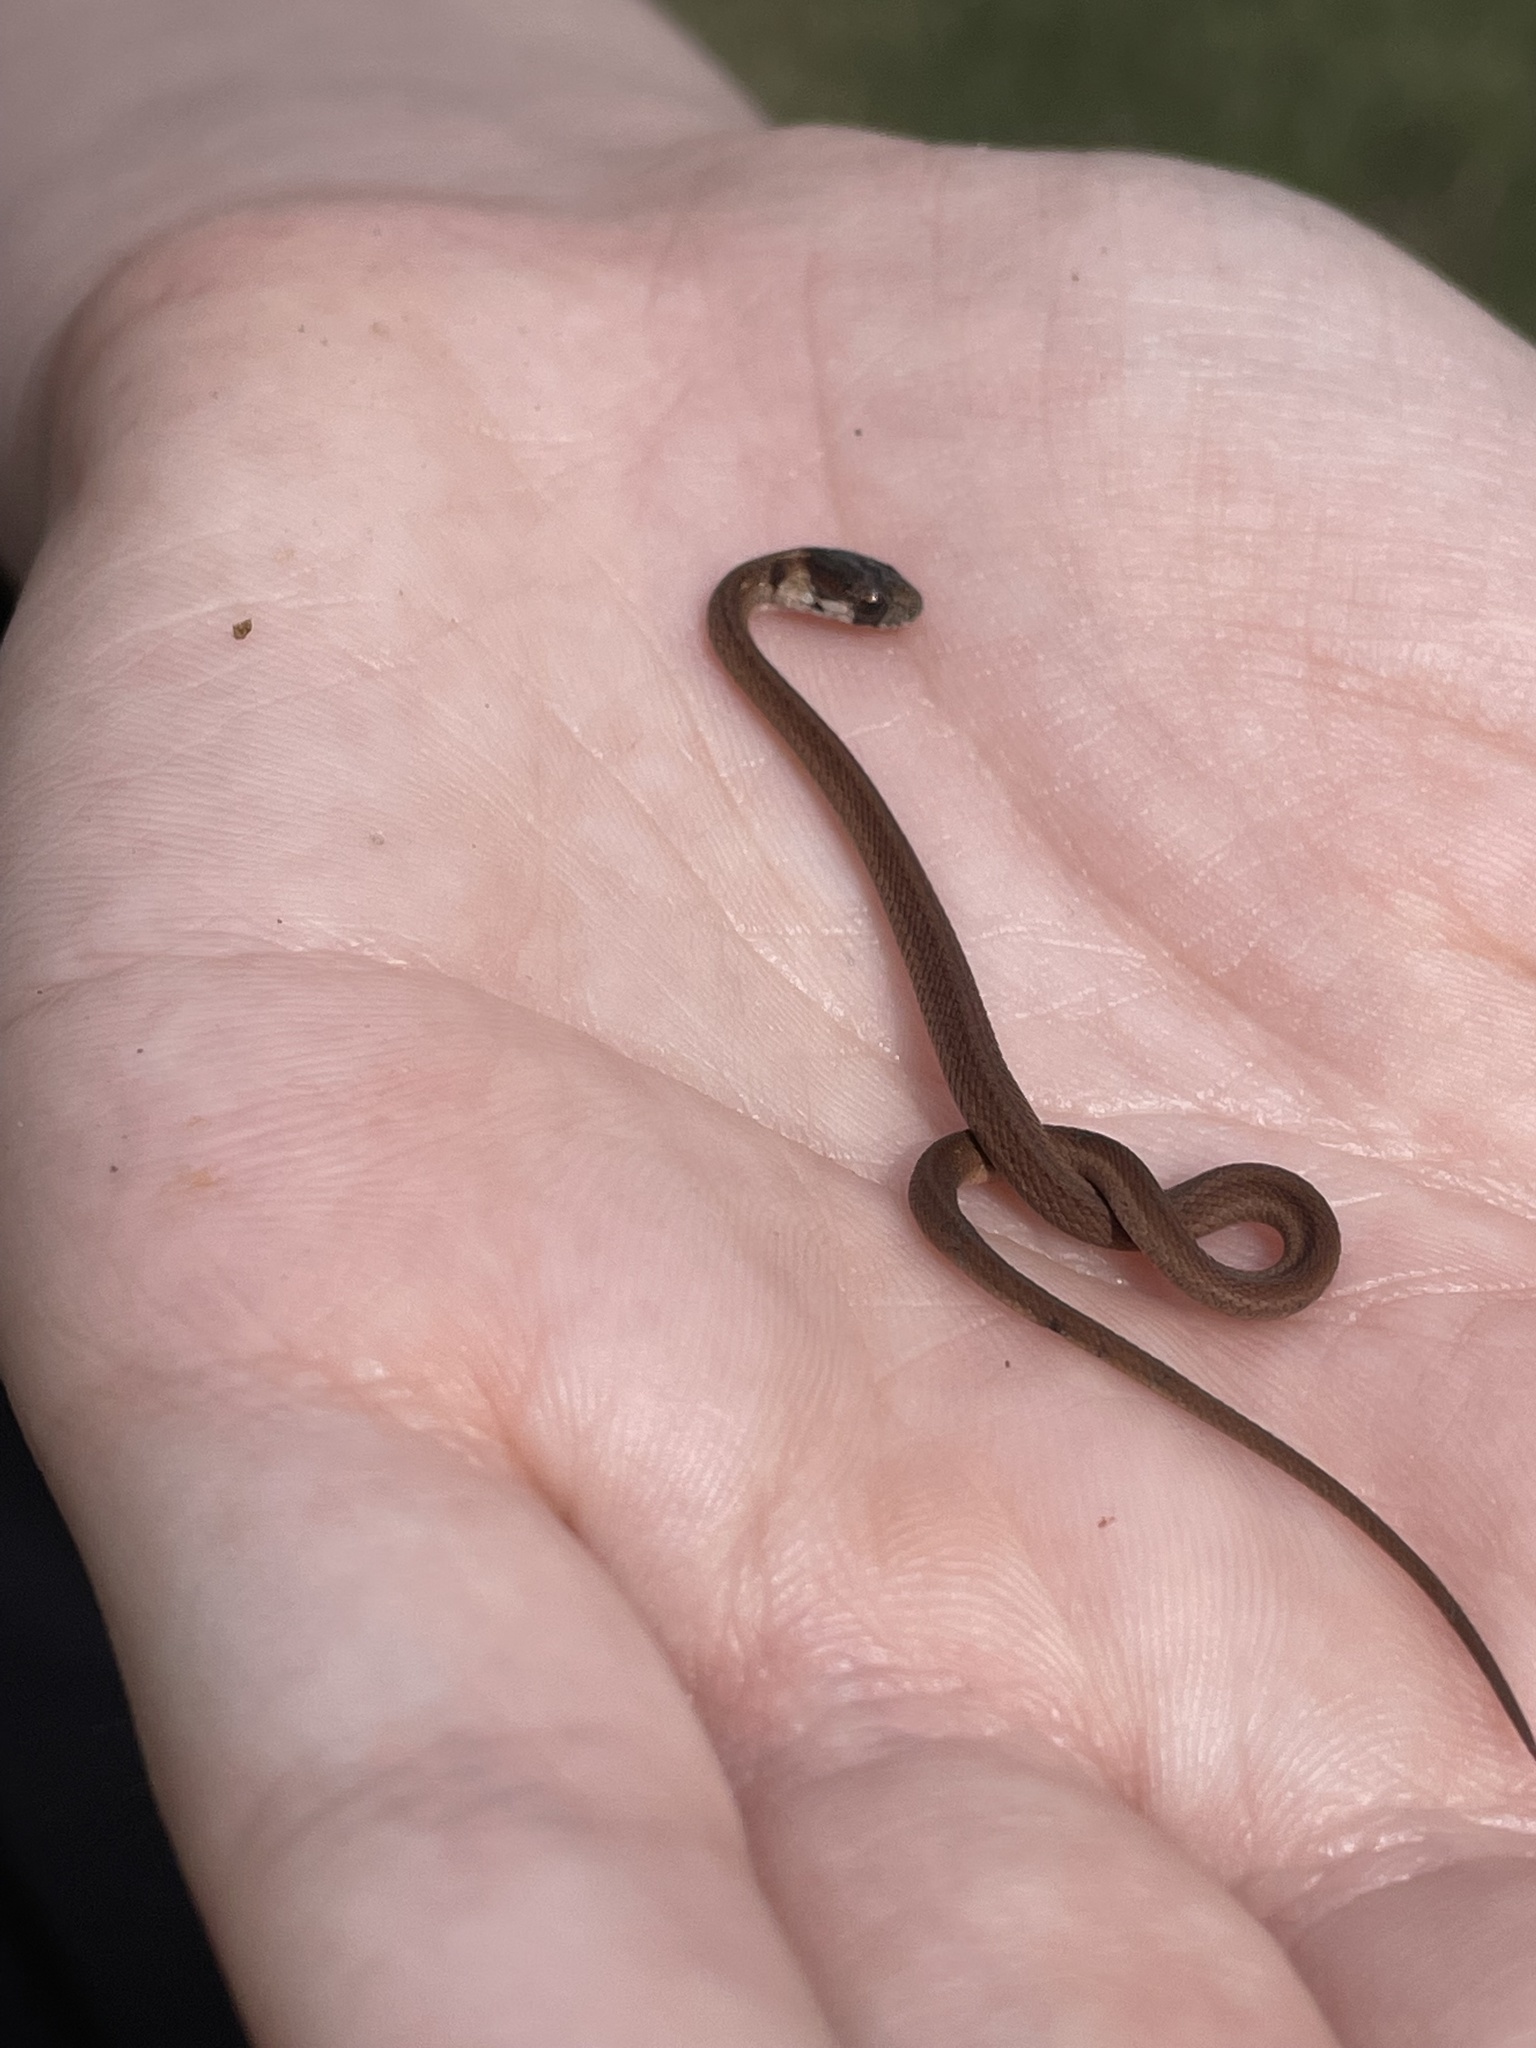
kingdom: Animalia
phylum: Chordata
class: Squamata
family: Colubridae
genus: Storeria
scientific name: Storeria dekayi
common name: (dekay’s) brown snake
